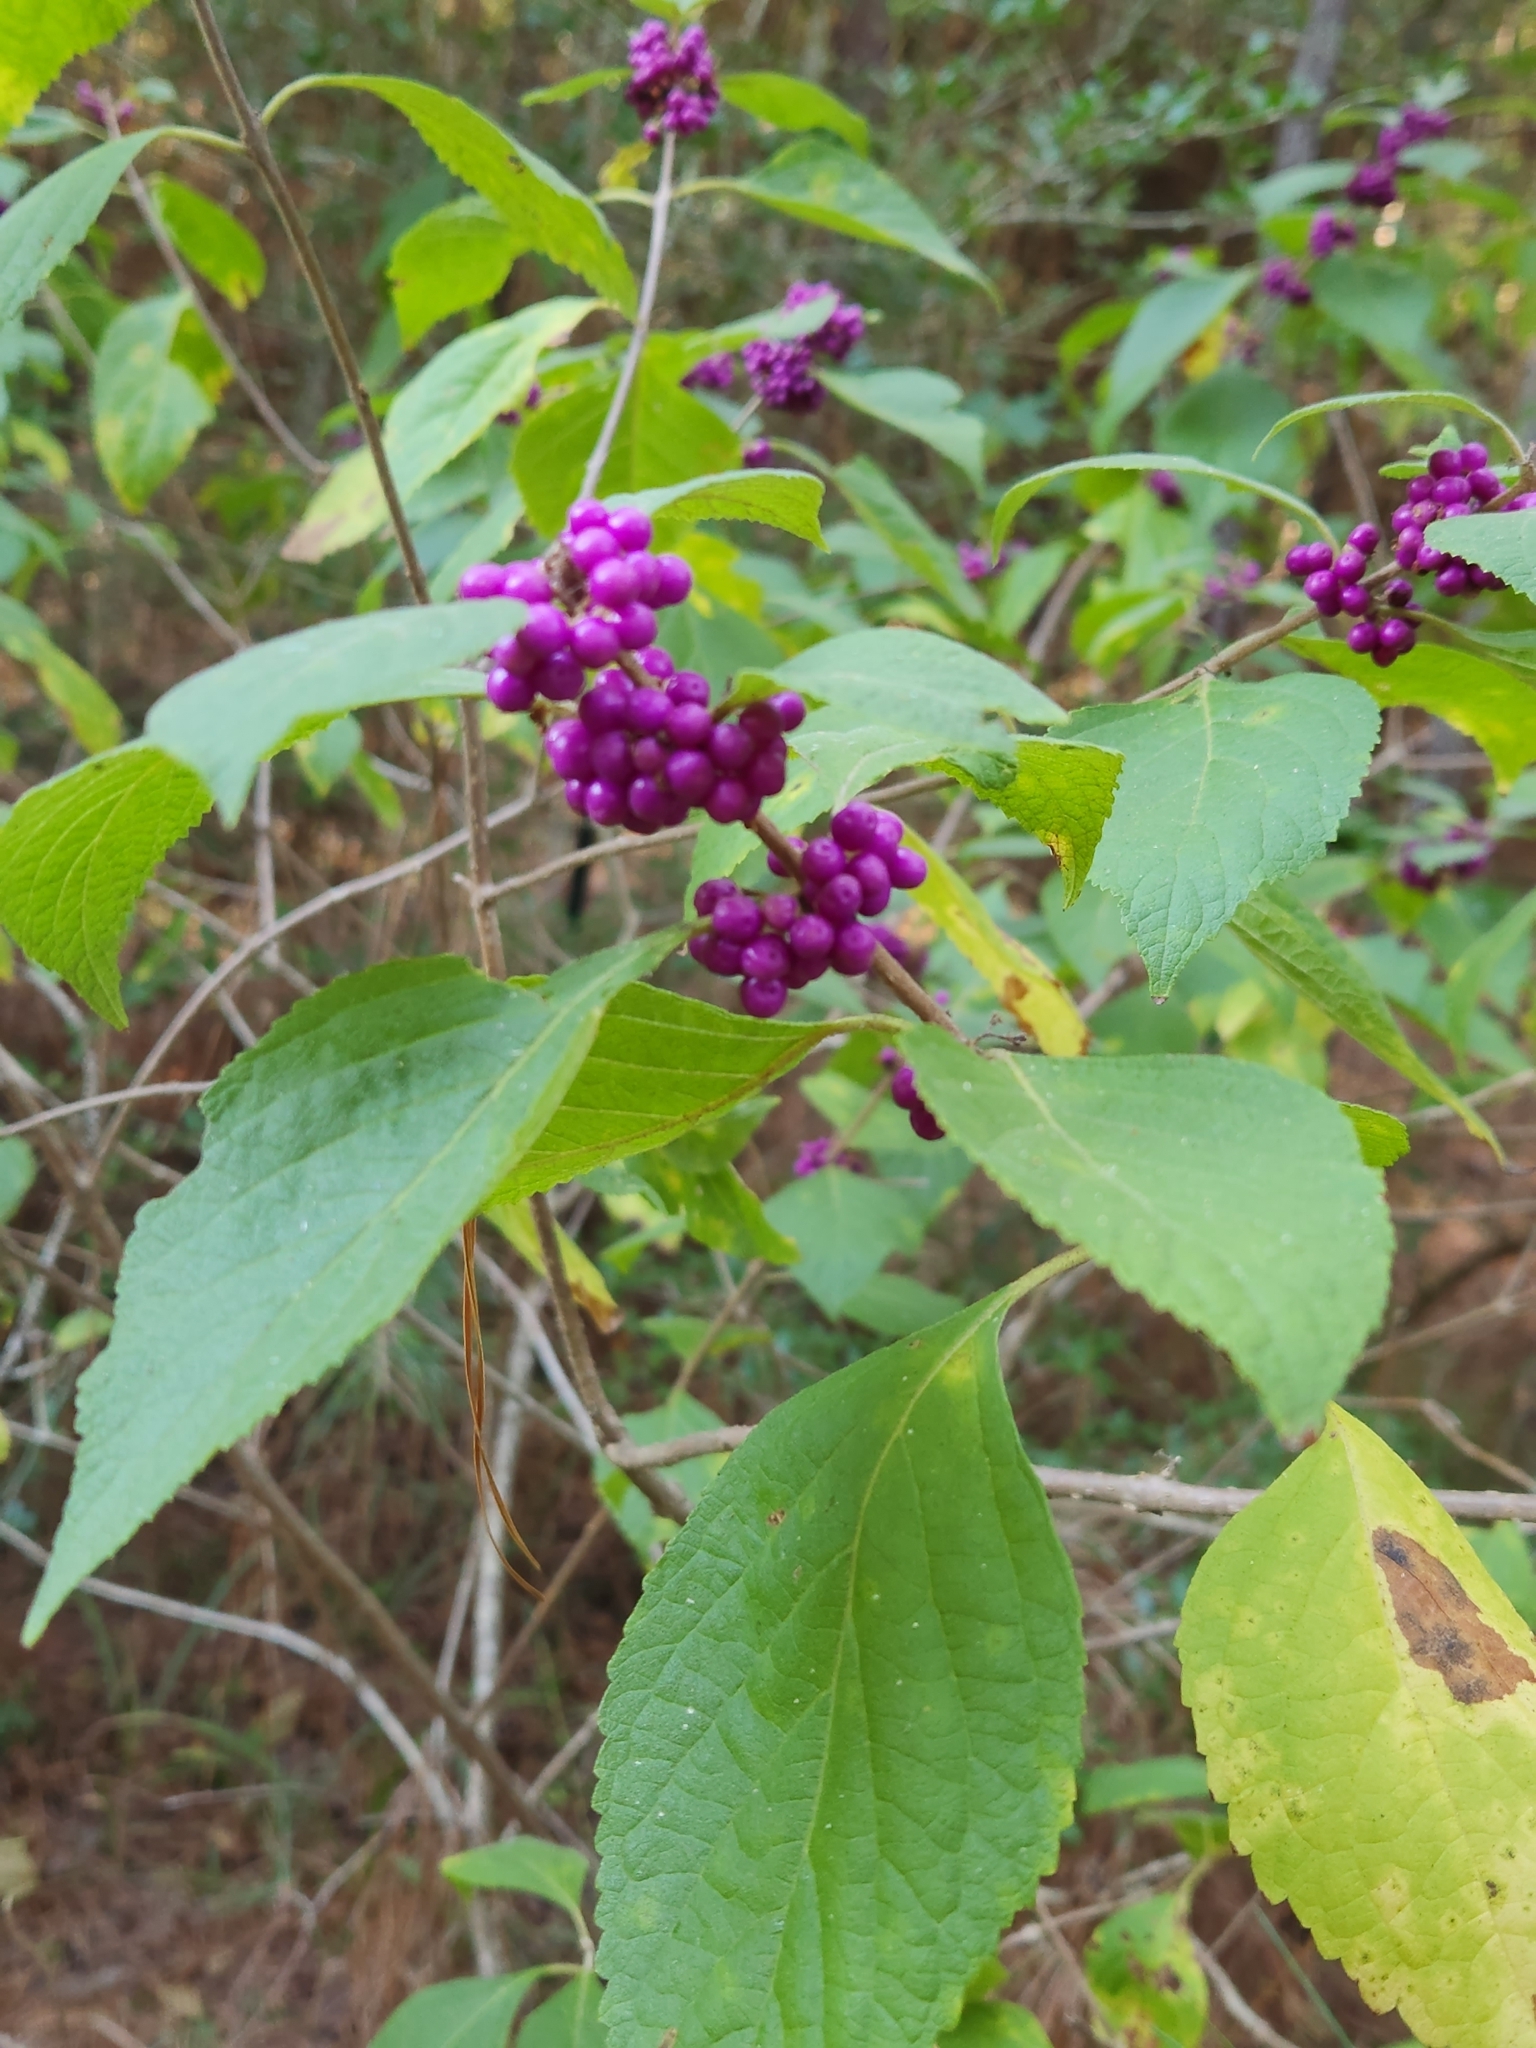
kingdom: Plantae
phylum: Tracheophyta
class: Magnoliopsida
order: Lamiales
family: Lamiaceae
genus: Callicarpa
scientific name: Callicarpa americana
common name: American beautyberry
